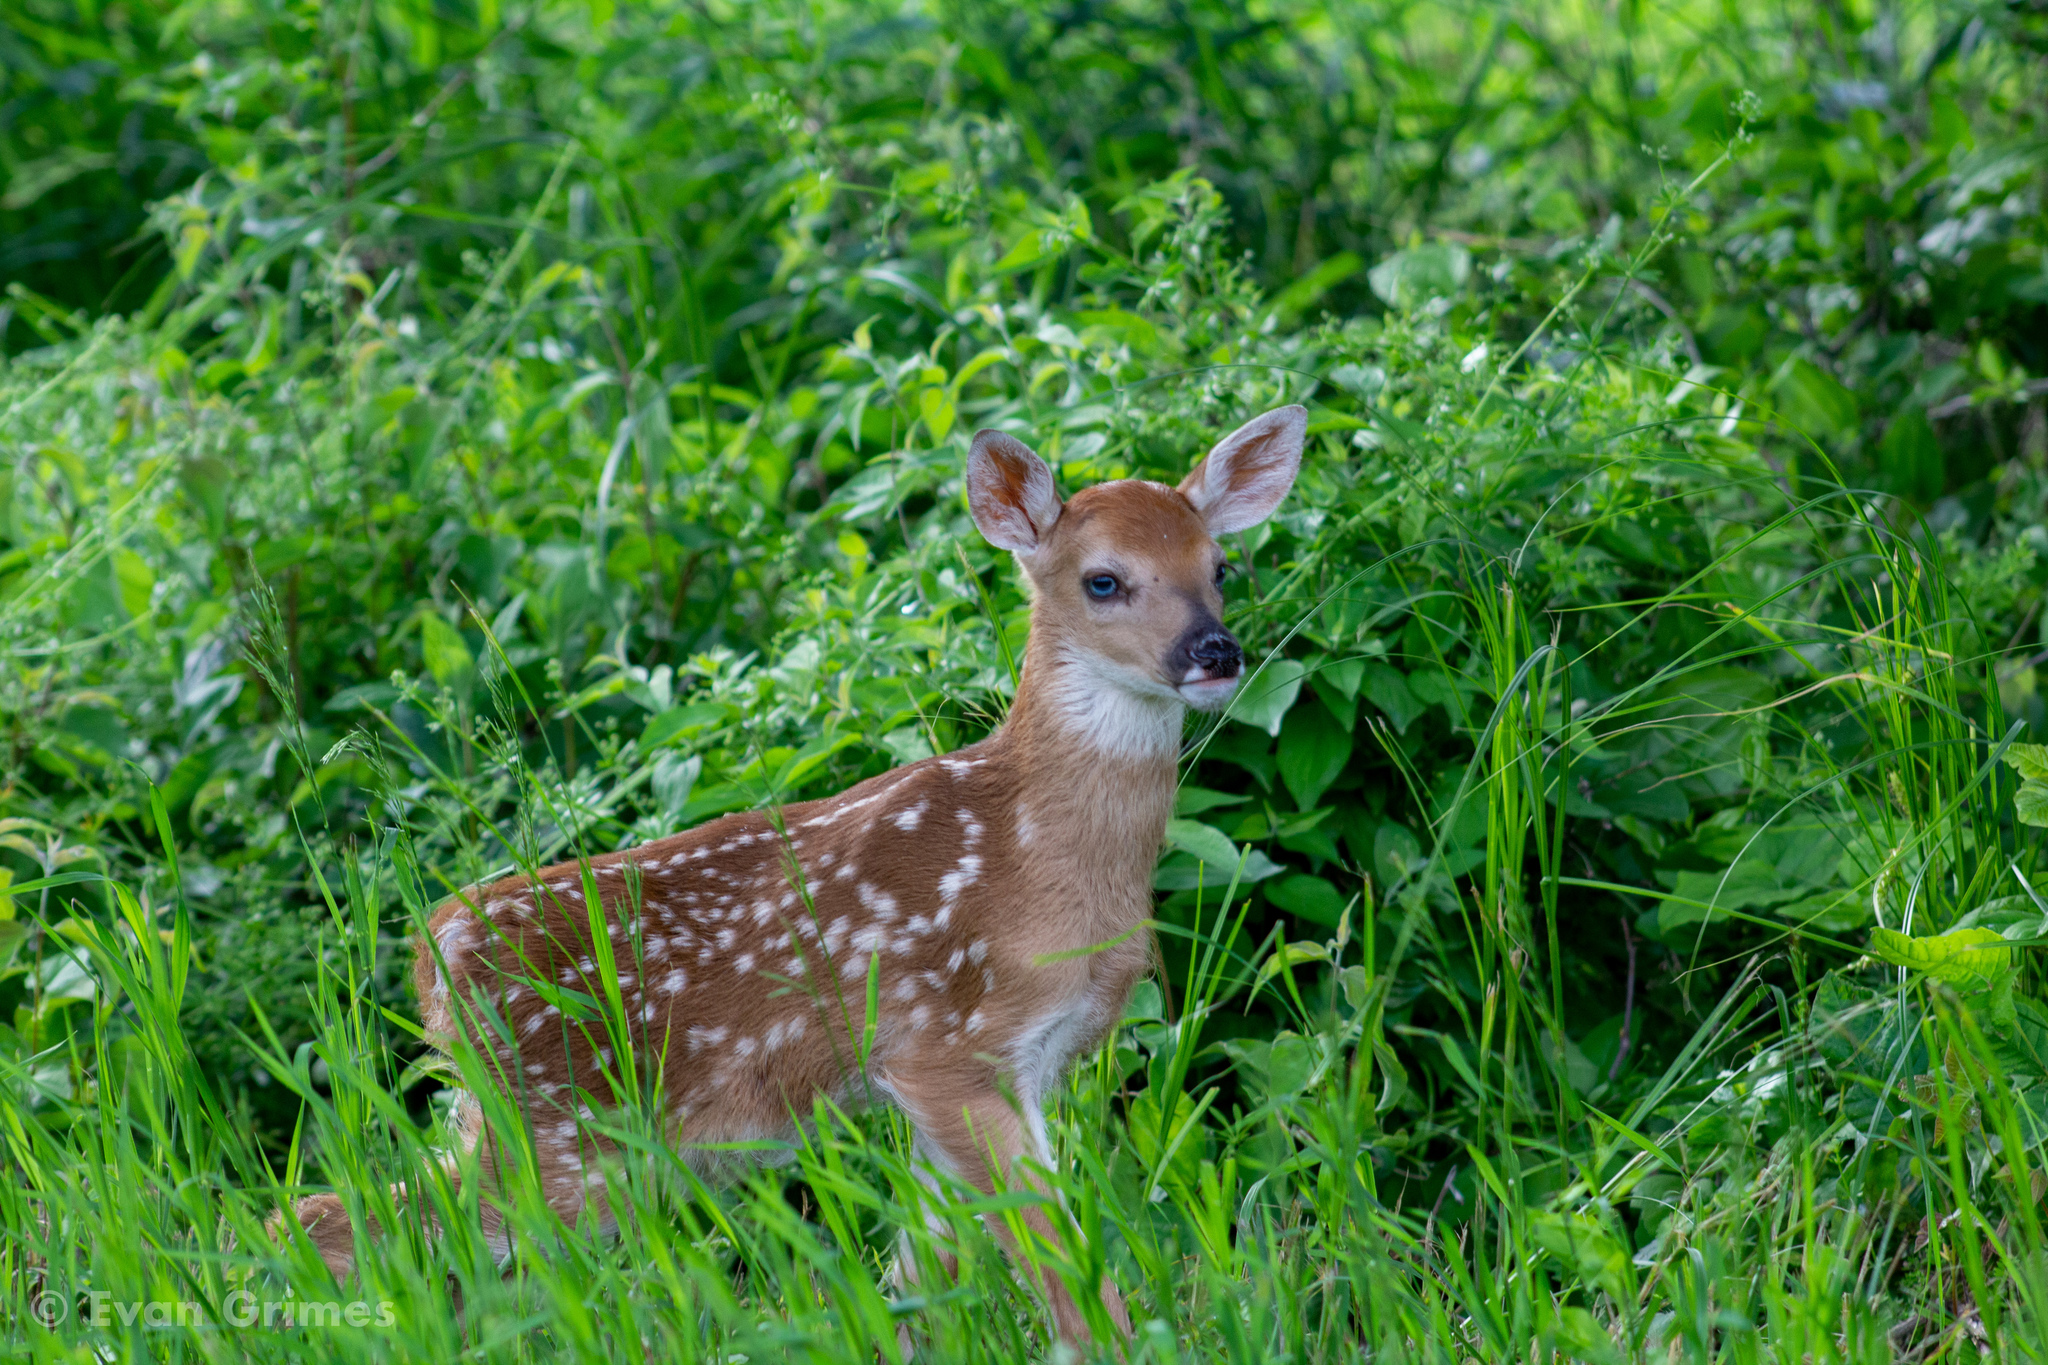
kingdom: Animalia
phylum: Chordata
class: Mammalia
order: Artiodactyla
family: Cervidae
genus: Odocoileus
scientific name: Odocoileus virginianus
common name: White-tailed deer
